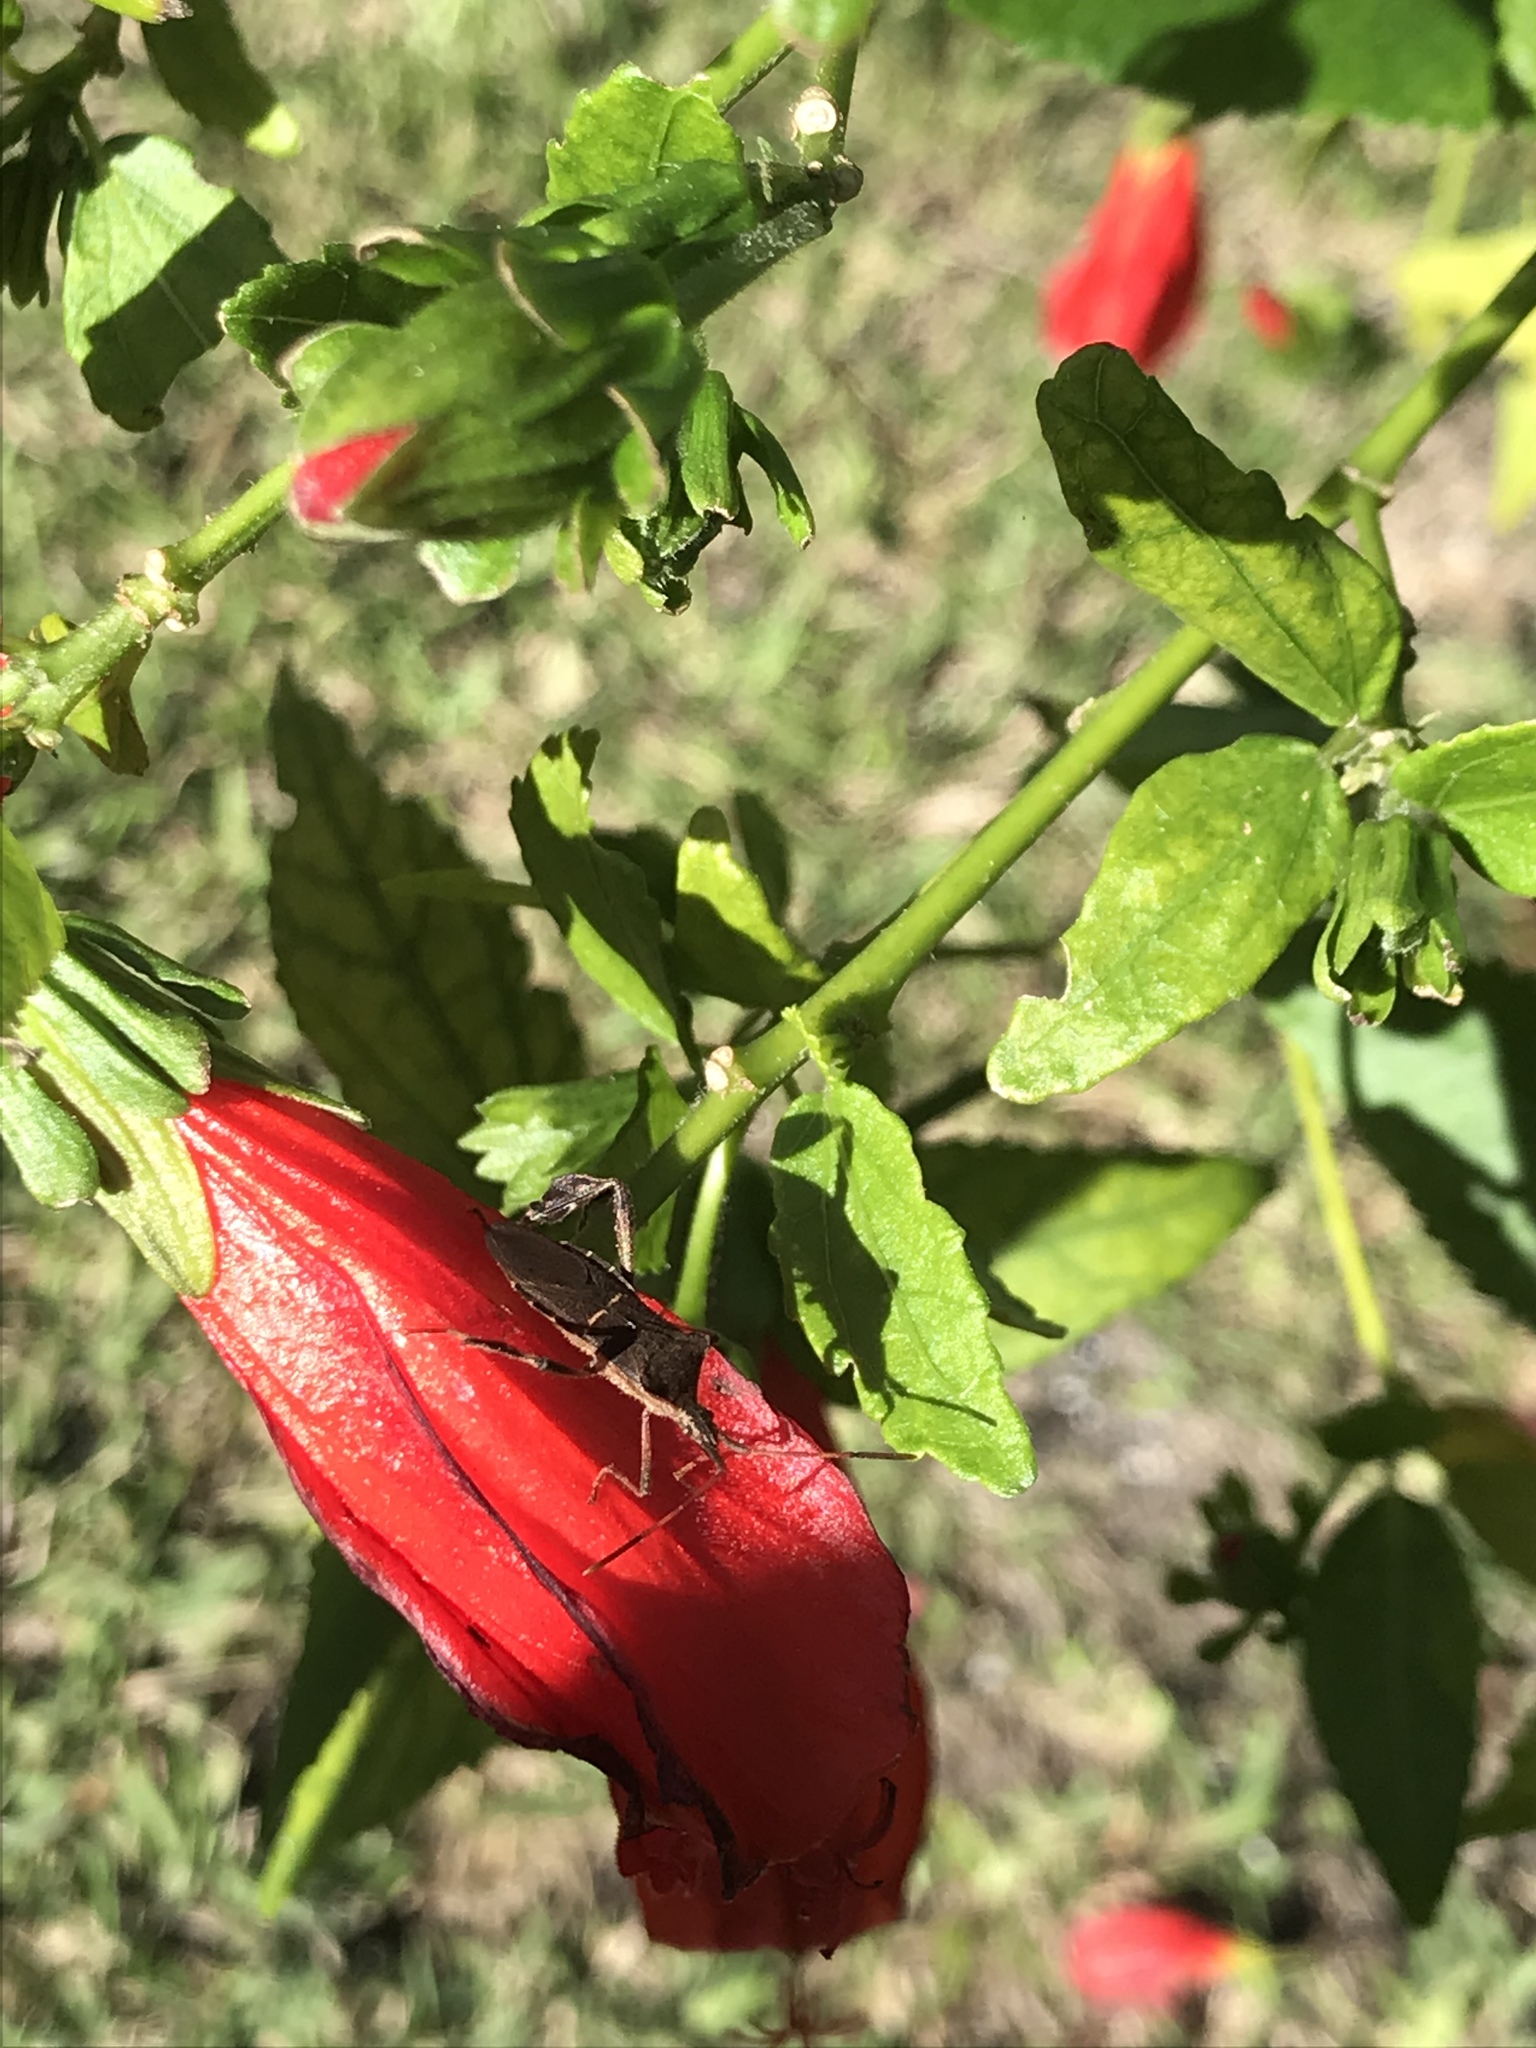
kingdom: Animalia
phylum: Arthropoda
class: Insecta
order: Hemiptera
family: Coreidae
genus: Leptoglossus
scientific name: Leptoglossus phyllopus
